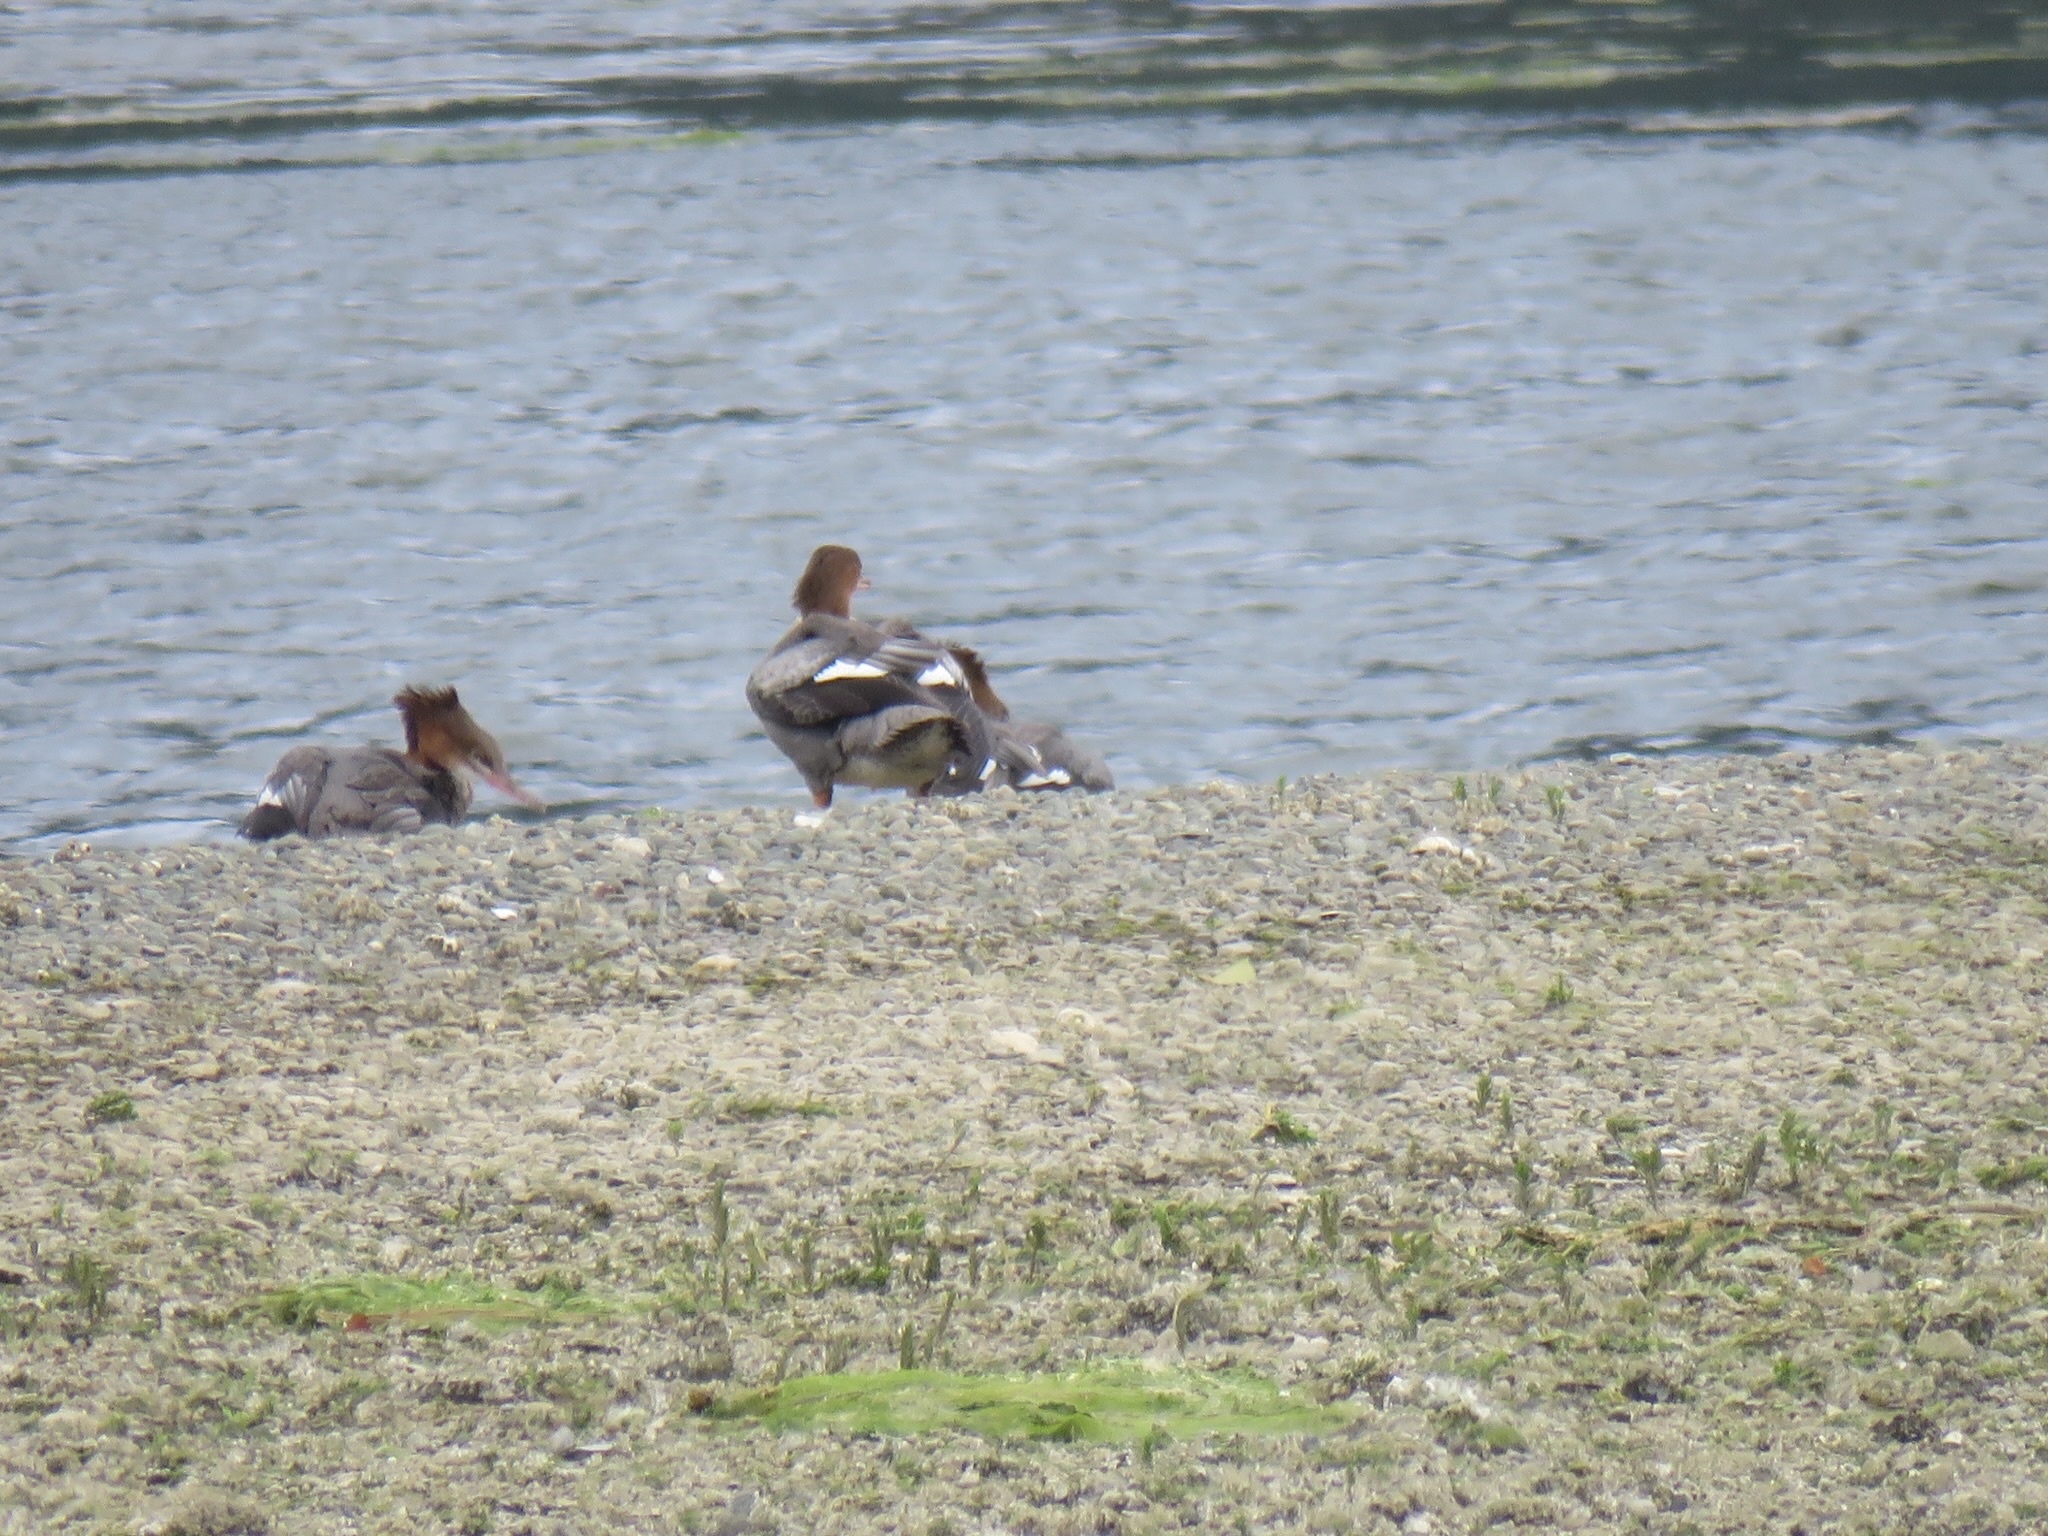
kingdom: Animalia
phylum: Chordata
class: Aves
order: Anseriformes
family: Anatidae
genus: Mergus
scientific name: Mergus merganser
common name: Common merganser
